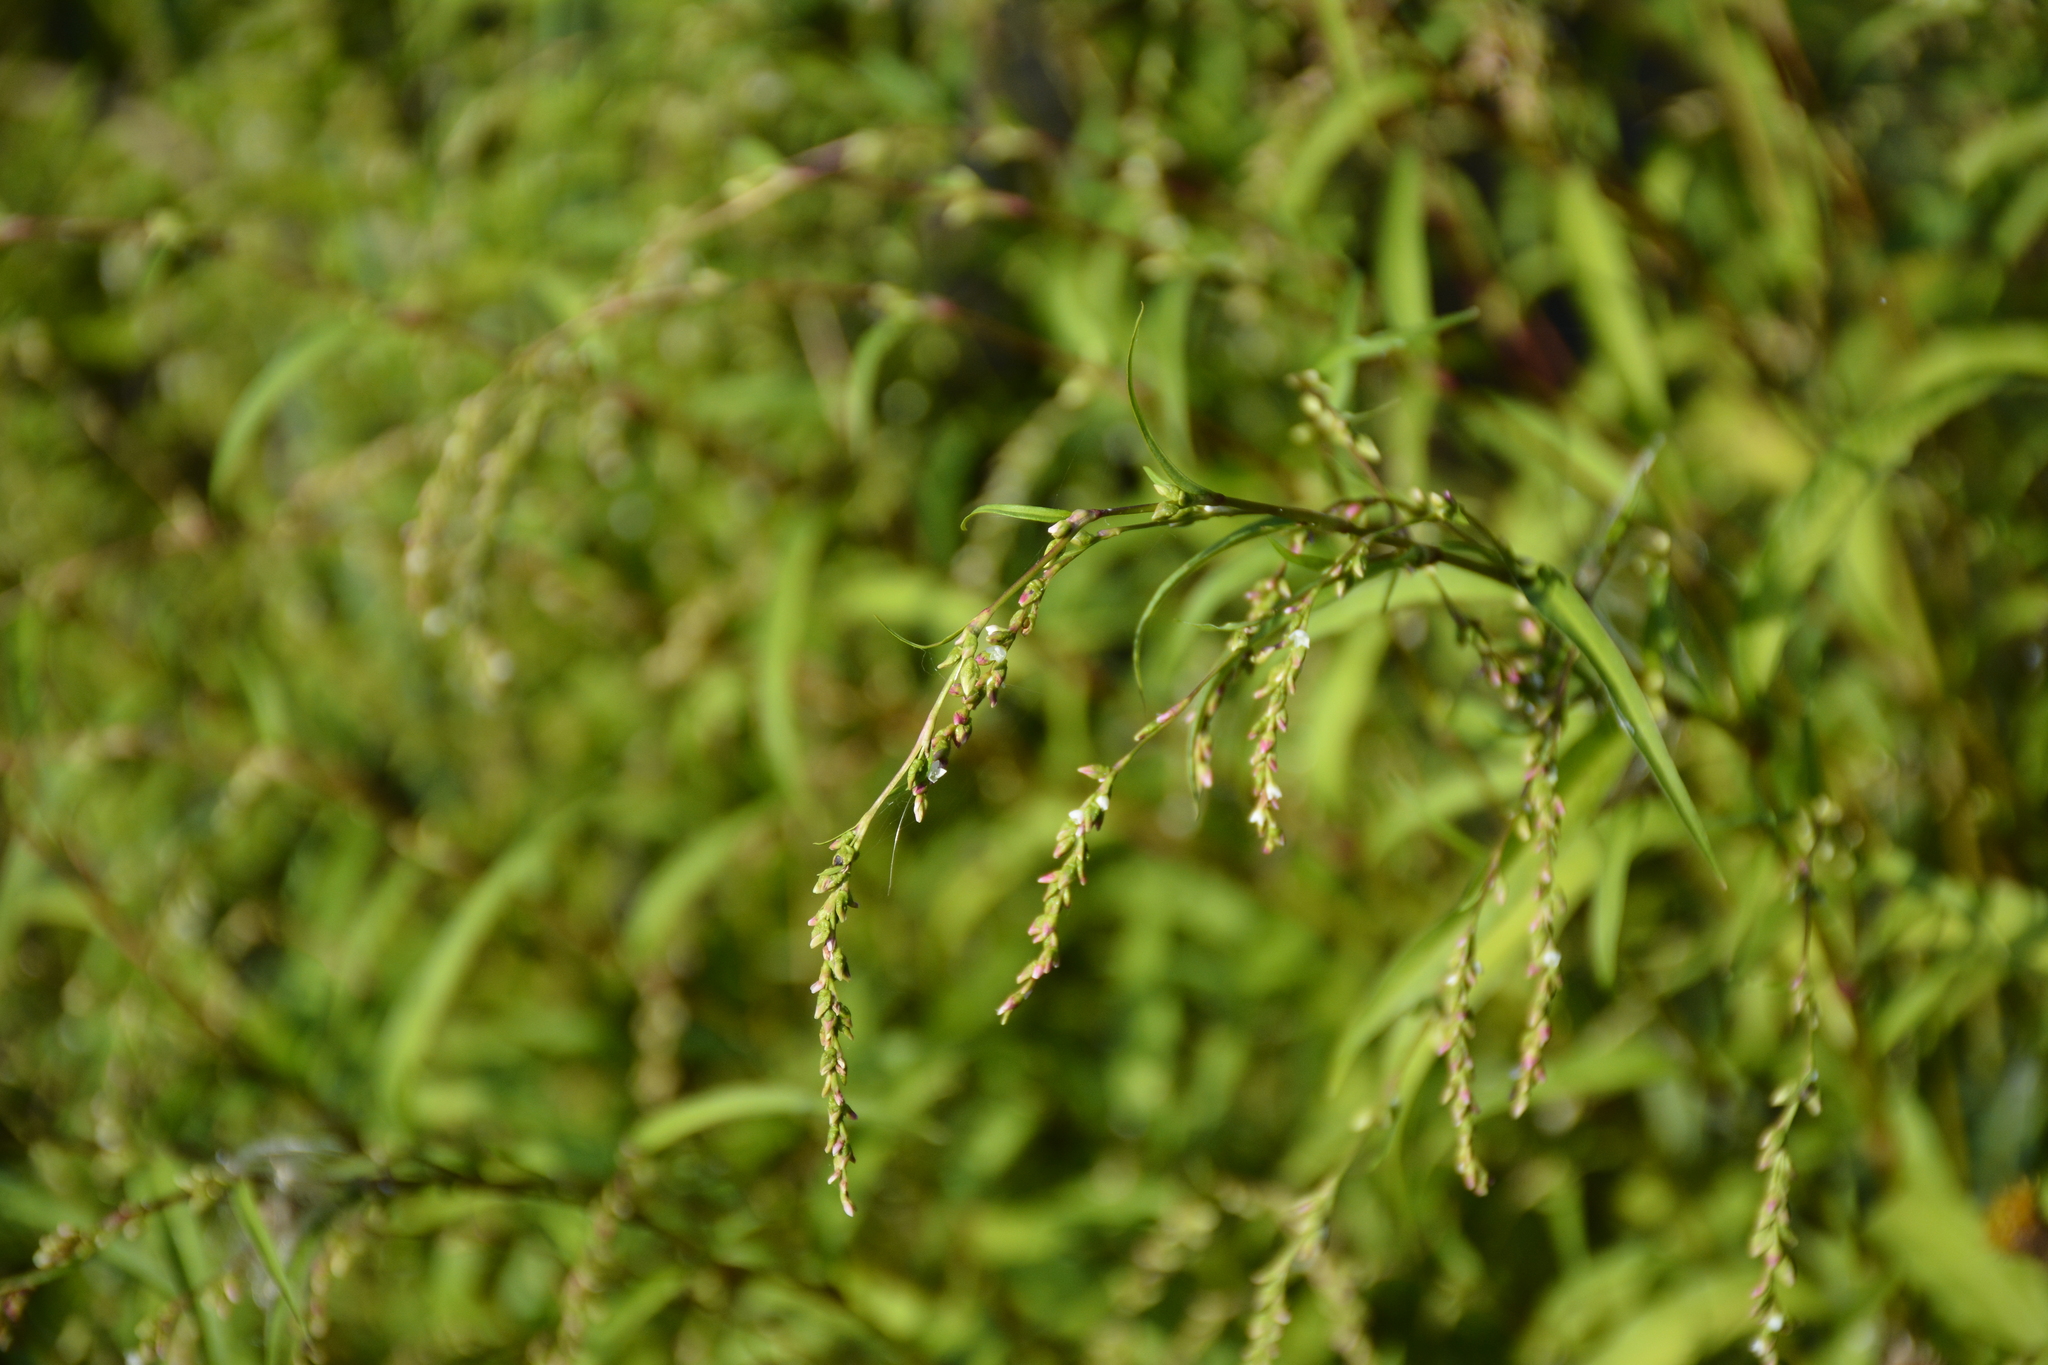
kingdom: Plantae
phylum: Tracheophyta
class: Magnoliopsida
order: Caryophyllales
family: Polygonaceae
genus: Persicaria
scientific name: Persicaria hydropiper
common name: Water-pepper
